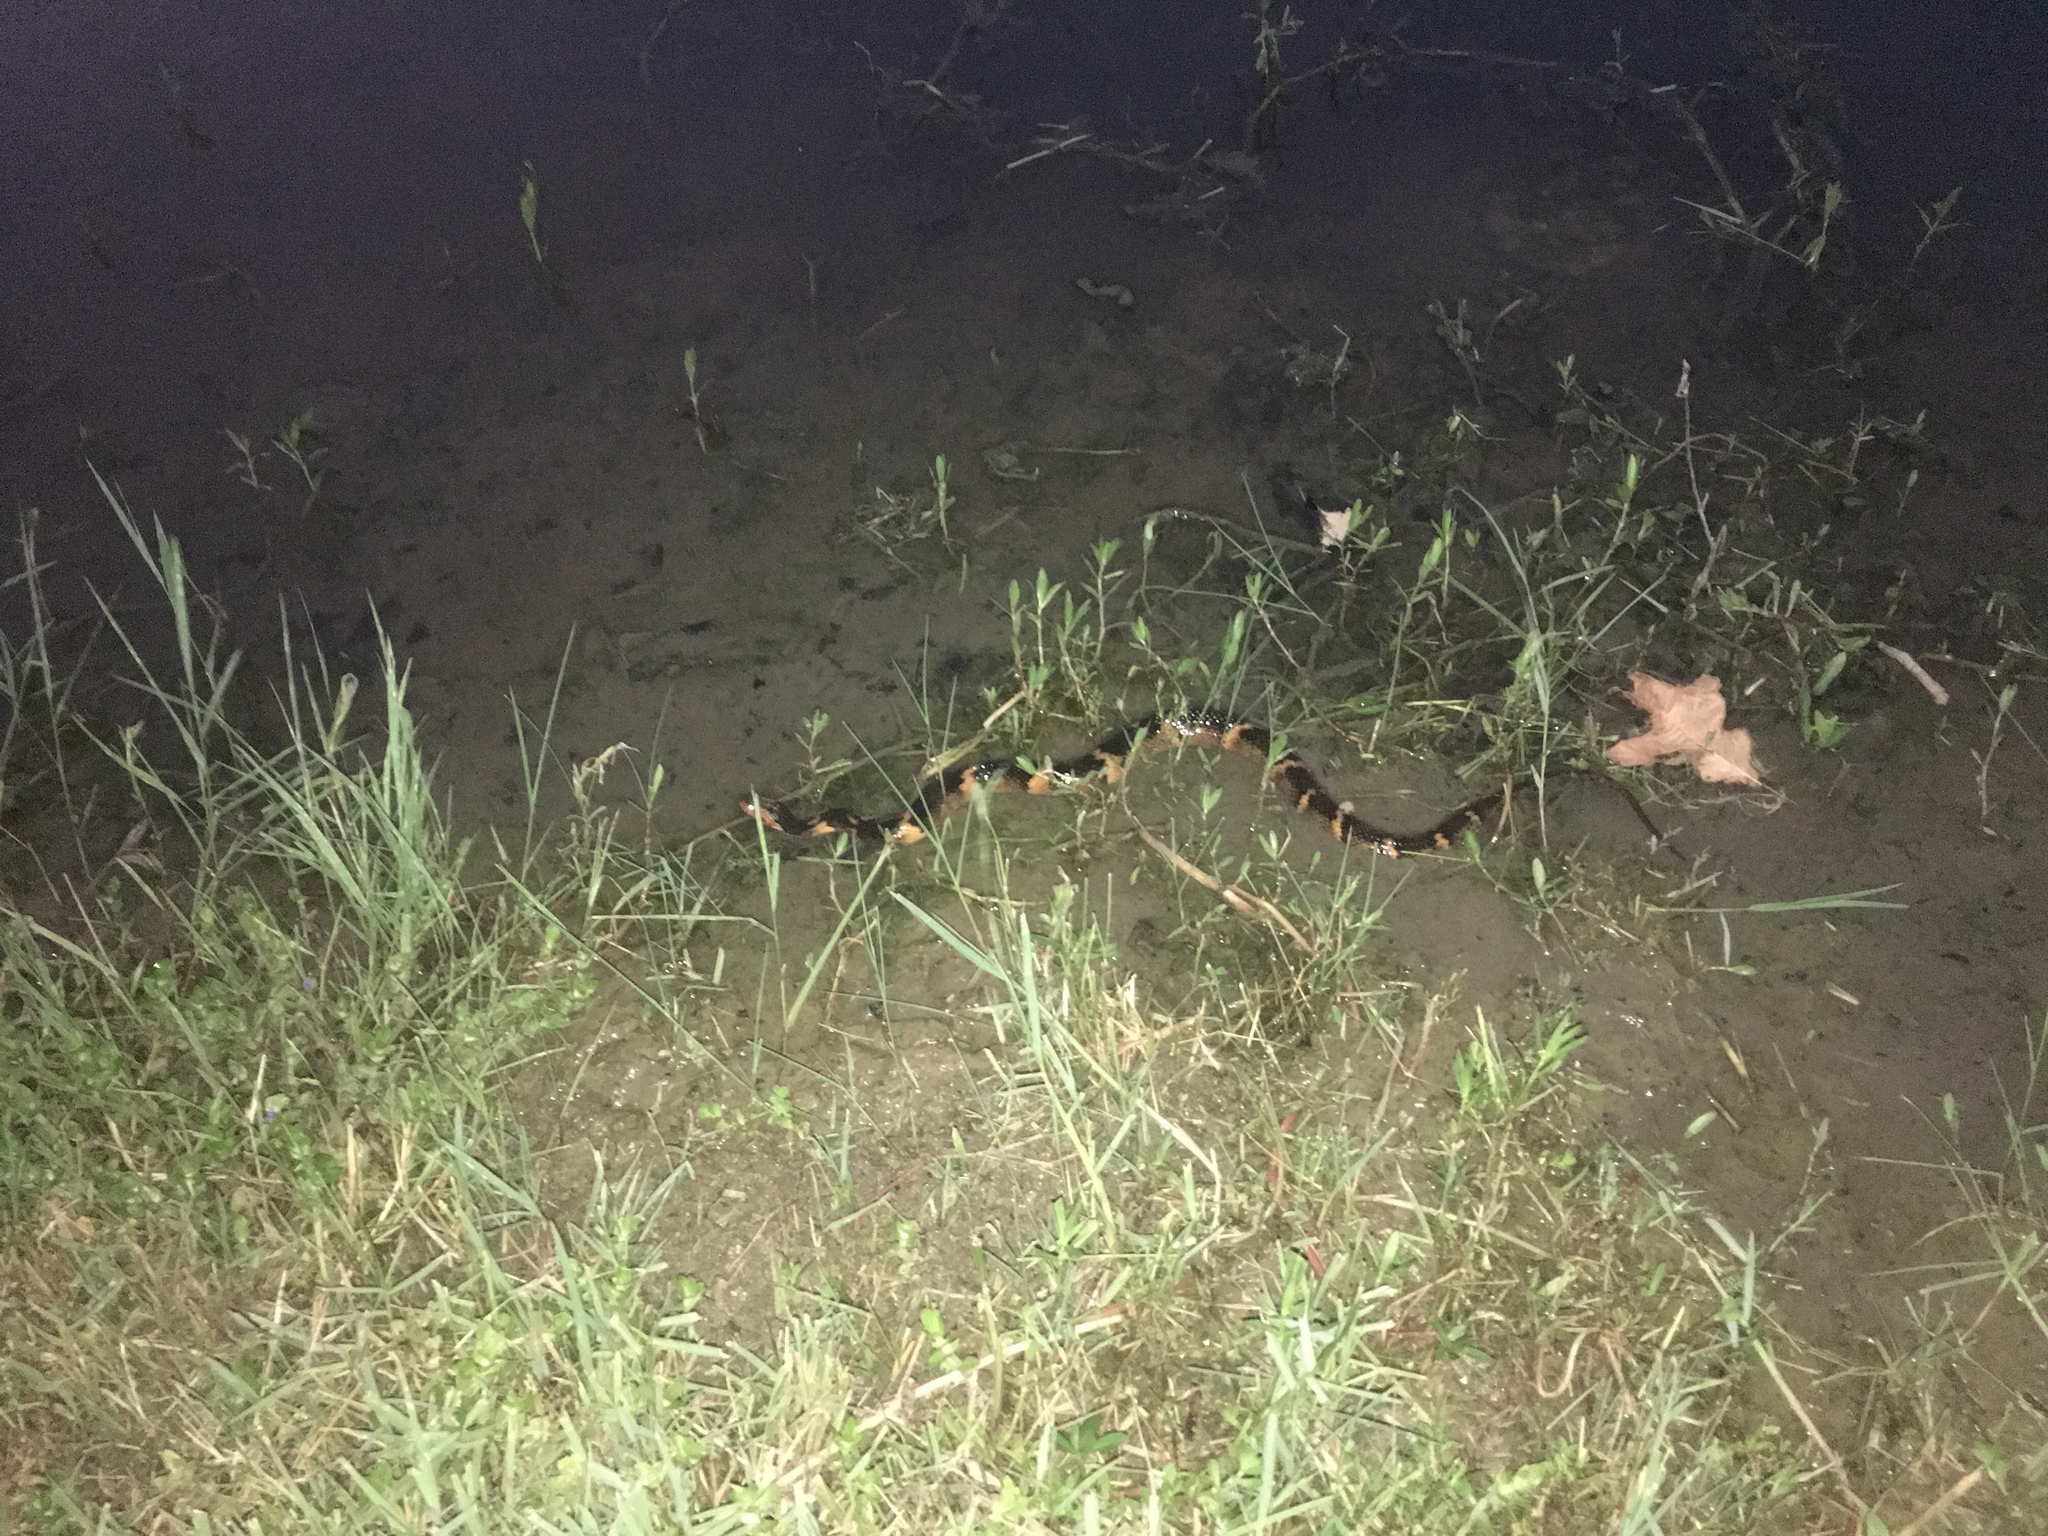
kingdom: Animalia
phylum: Chordata
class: Squamata
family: Colubridae
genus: Nerodia
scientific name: Nerodia fasciata
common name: Southern water snake
